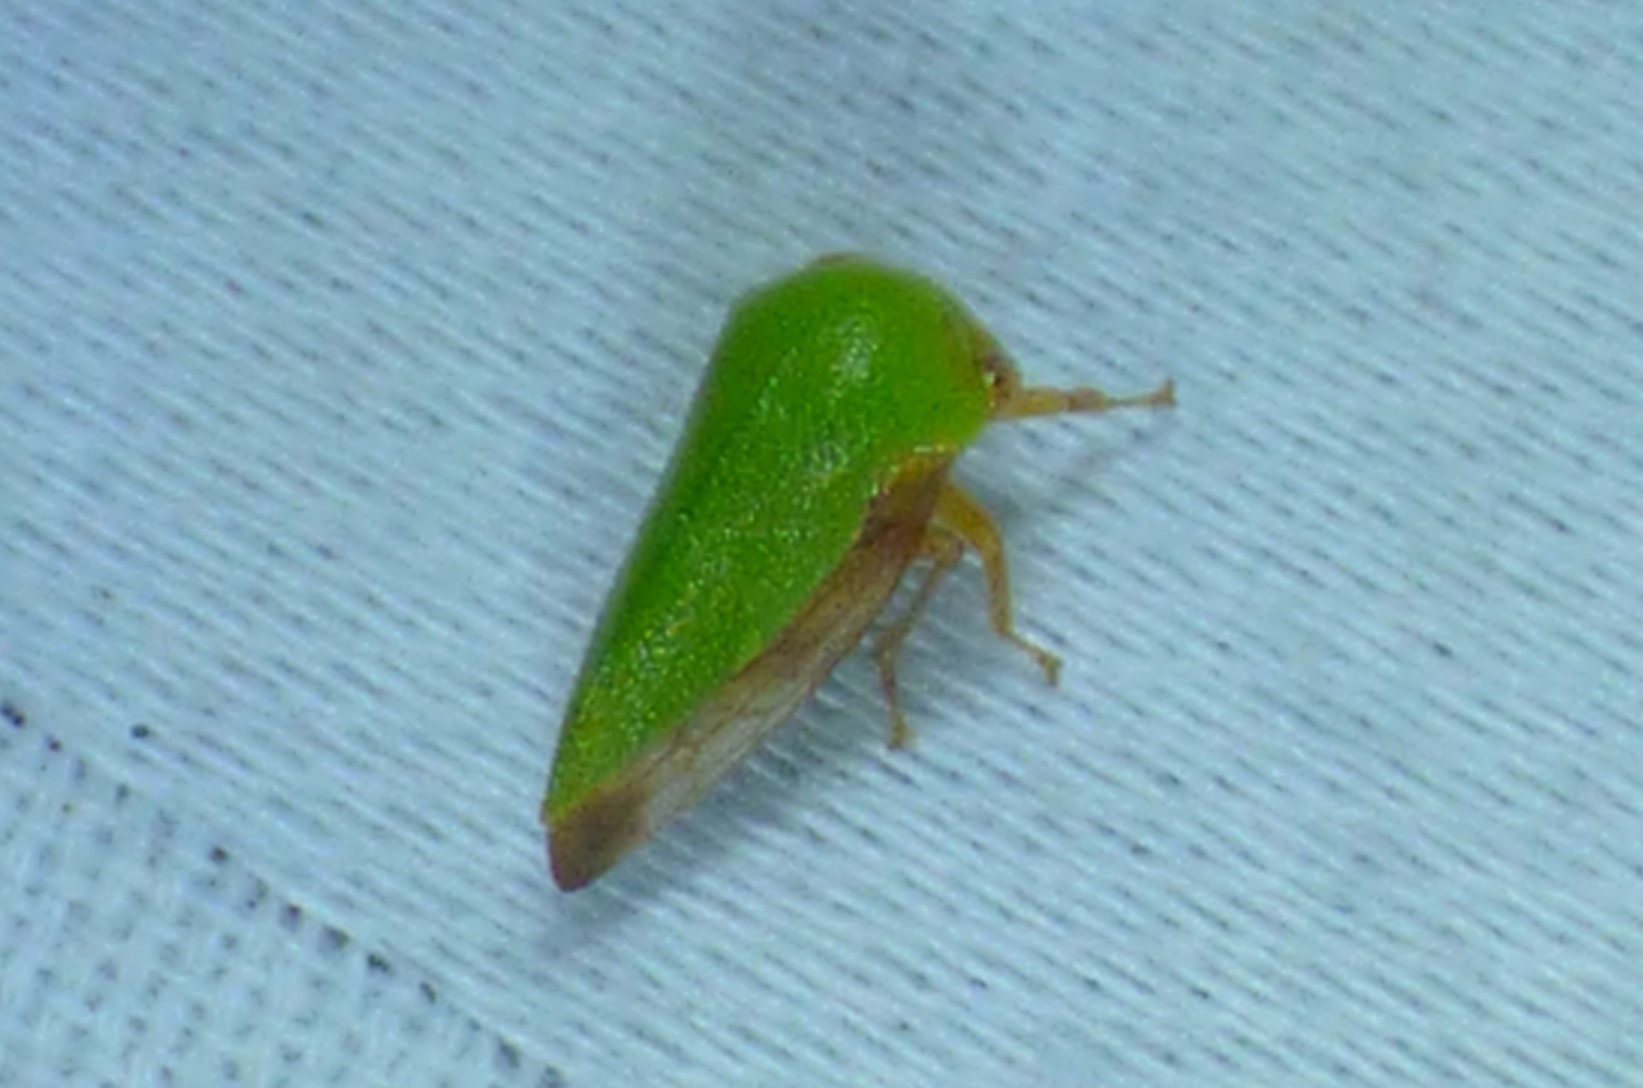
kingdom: Animalia
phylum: Arthropoda
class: Insecta
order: Hemiptera
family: Membracidae
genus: Ophiderma
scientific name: Ophiderma evelyna
